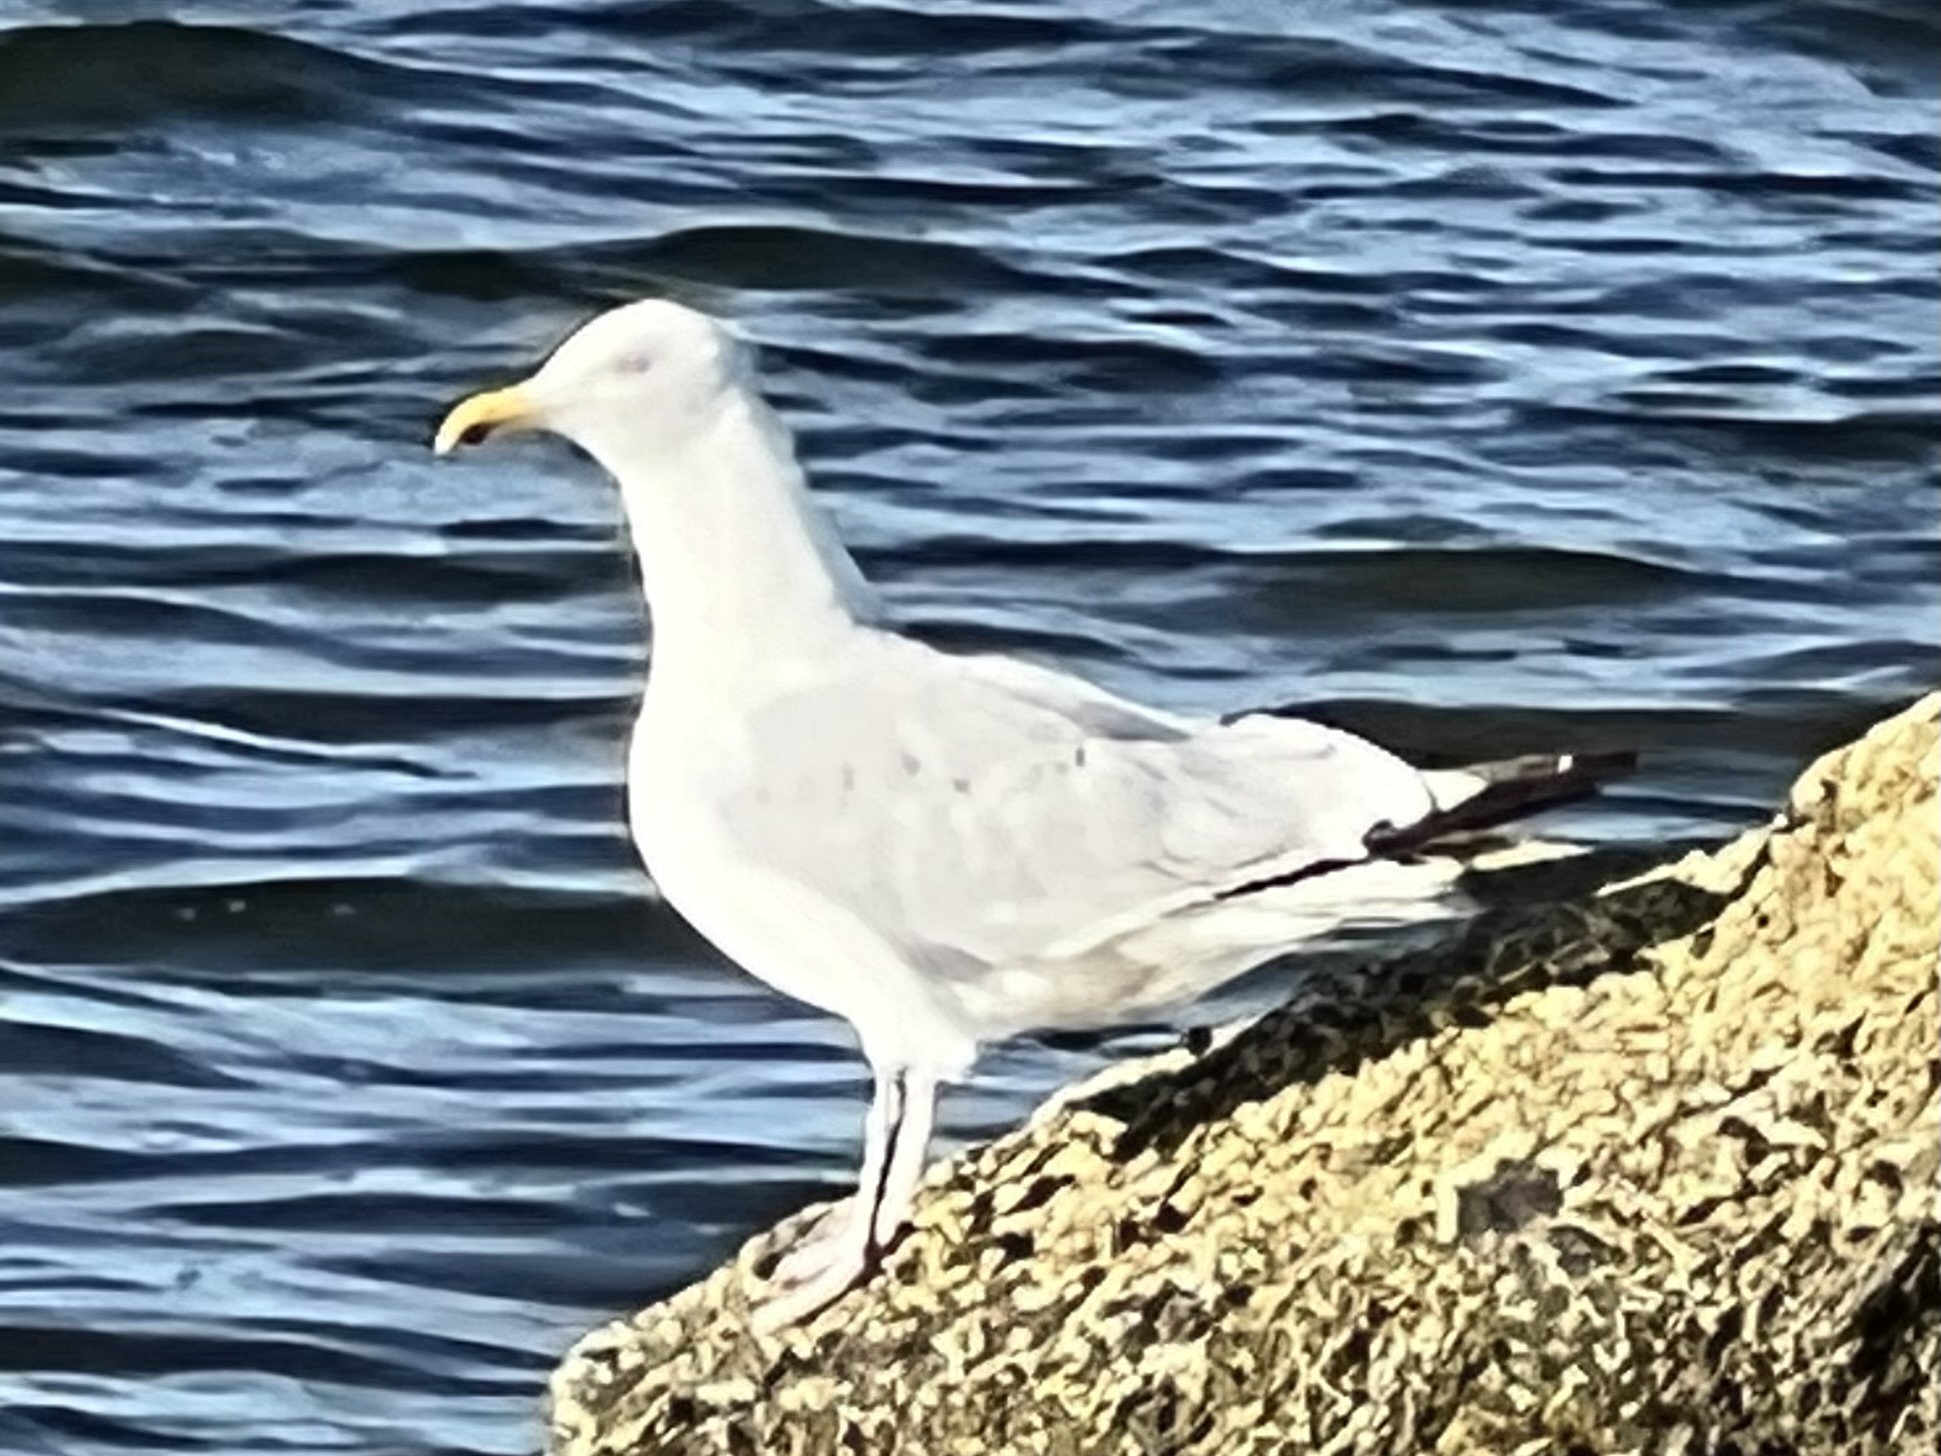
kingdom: Animalia
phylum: Chordata
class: Aves
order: Charadriiformes
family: Laridae
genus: Larus
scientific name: Larus argentatus
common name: Herring gull
